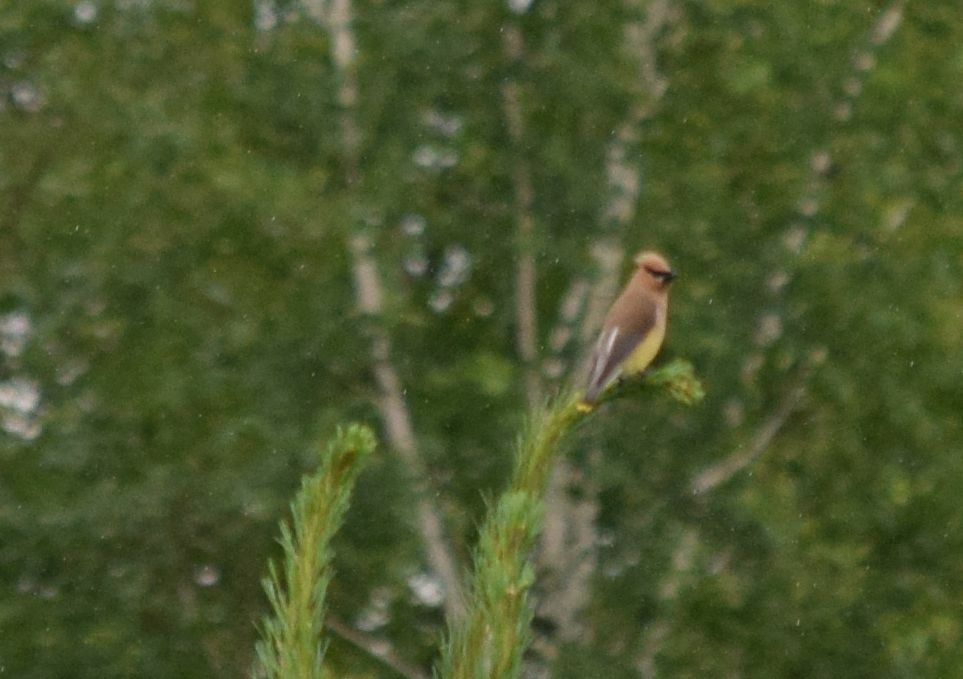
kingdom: Animalia
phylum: Chordata
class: Aves
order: Passeriformes
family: Bombycillidae
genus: Bombycilla
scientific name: Bombycilla cedrorum
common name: Cedar waxwing
